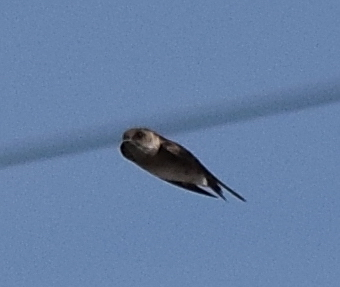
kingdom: Animalia
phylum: Chordata
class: Aves
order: Passeriformes
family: Hirundinidae
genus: Stelgidopteryx
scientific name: Stelgidopteryx serripennis
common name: Northern rough-winged swallow
